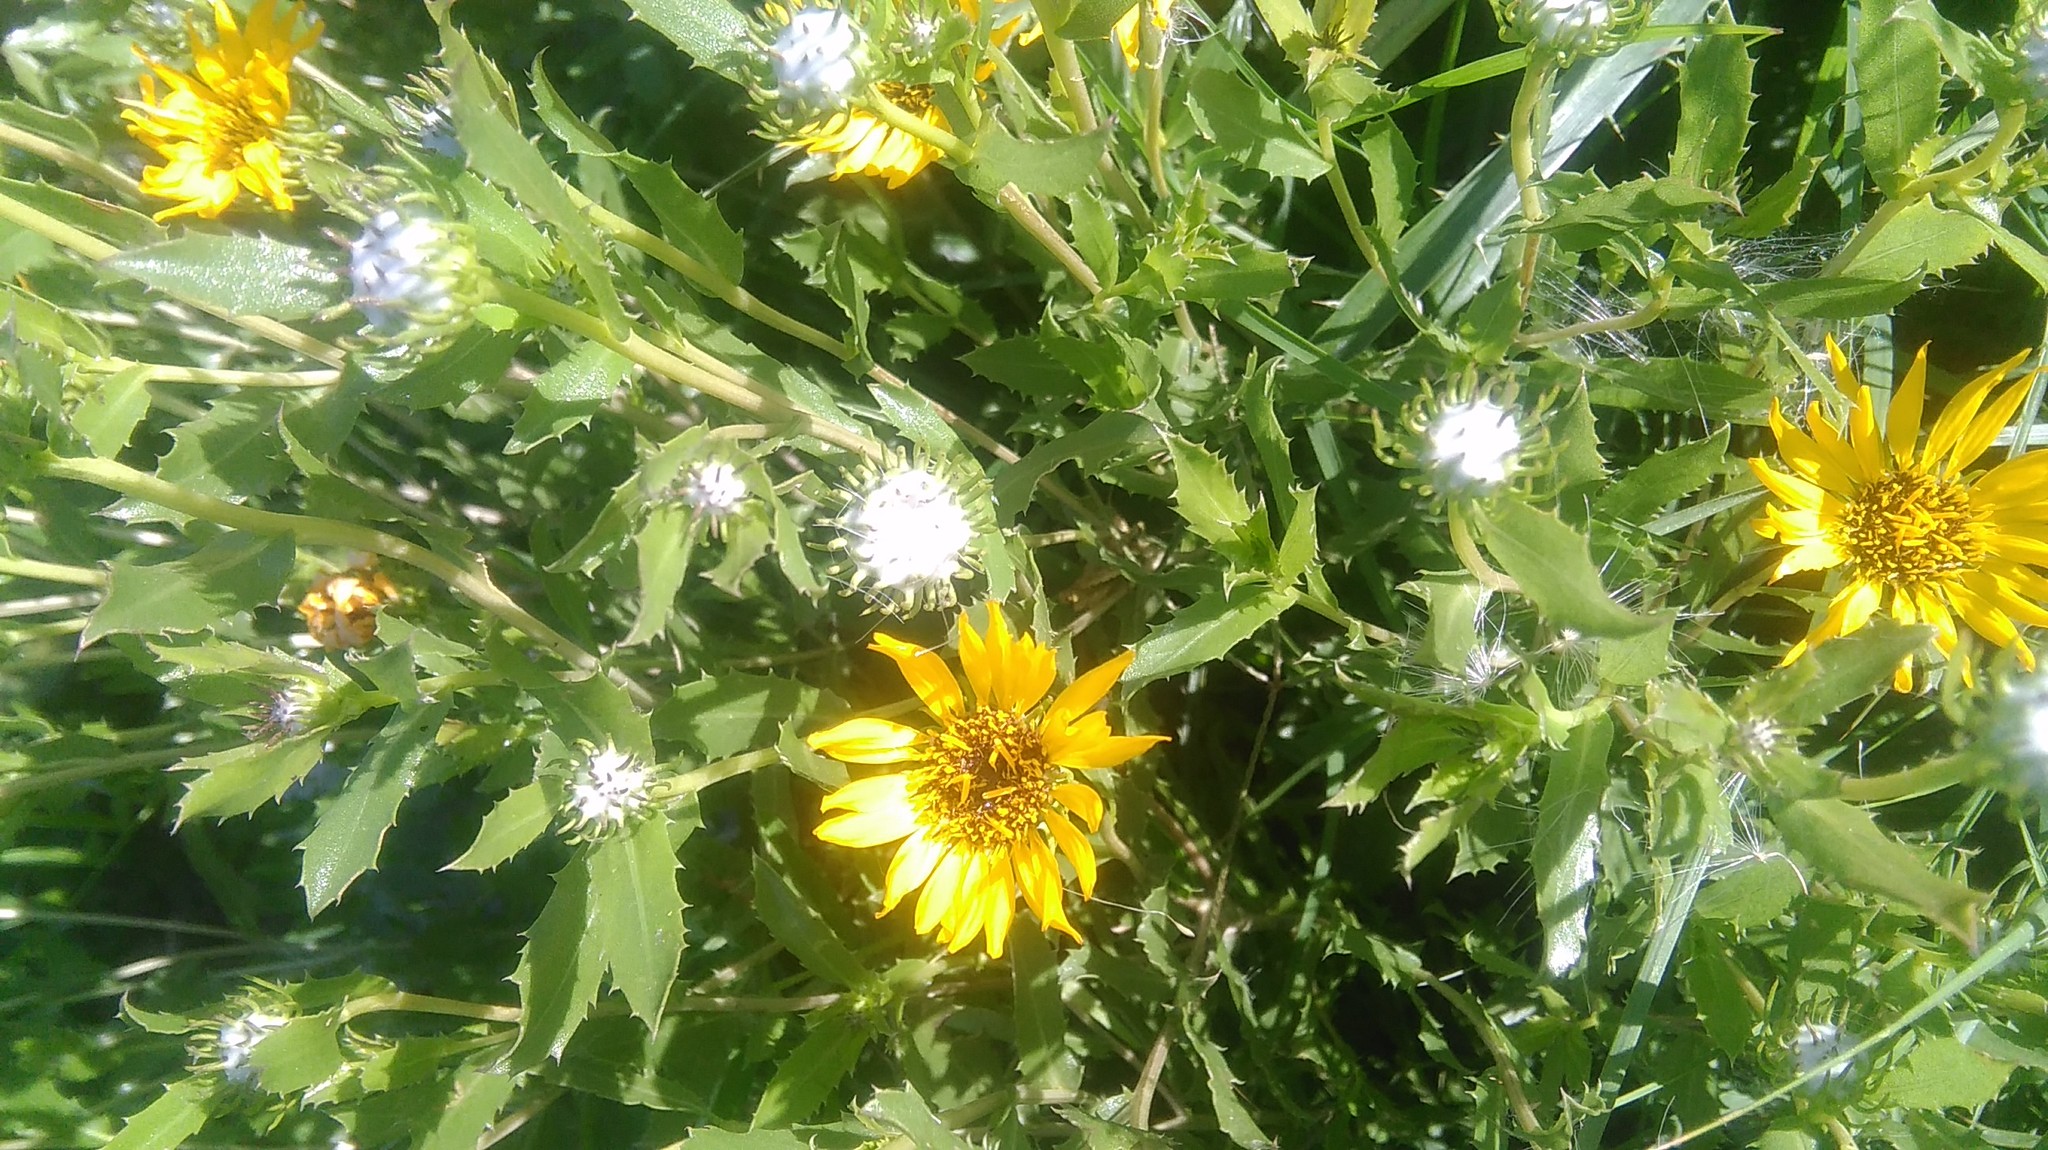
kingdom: Plantae
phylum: Tracheophyta
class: Magnoliopsida
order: Asterales
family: Asteraceae
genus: Grindelia
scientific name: Grindelia pulchella
